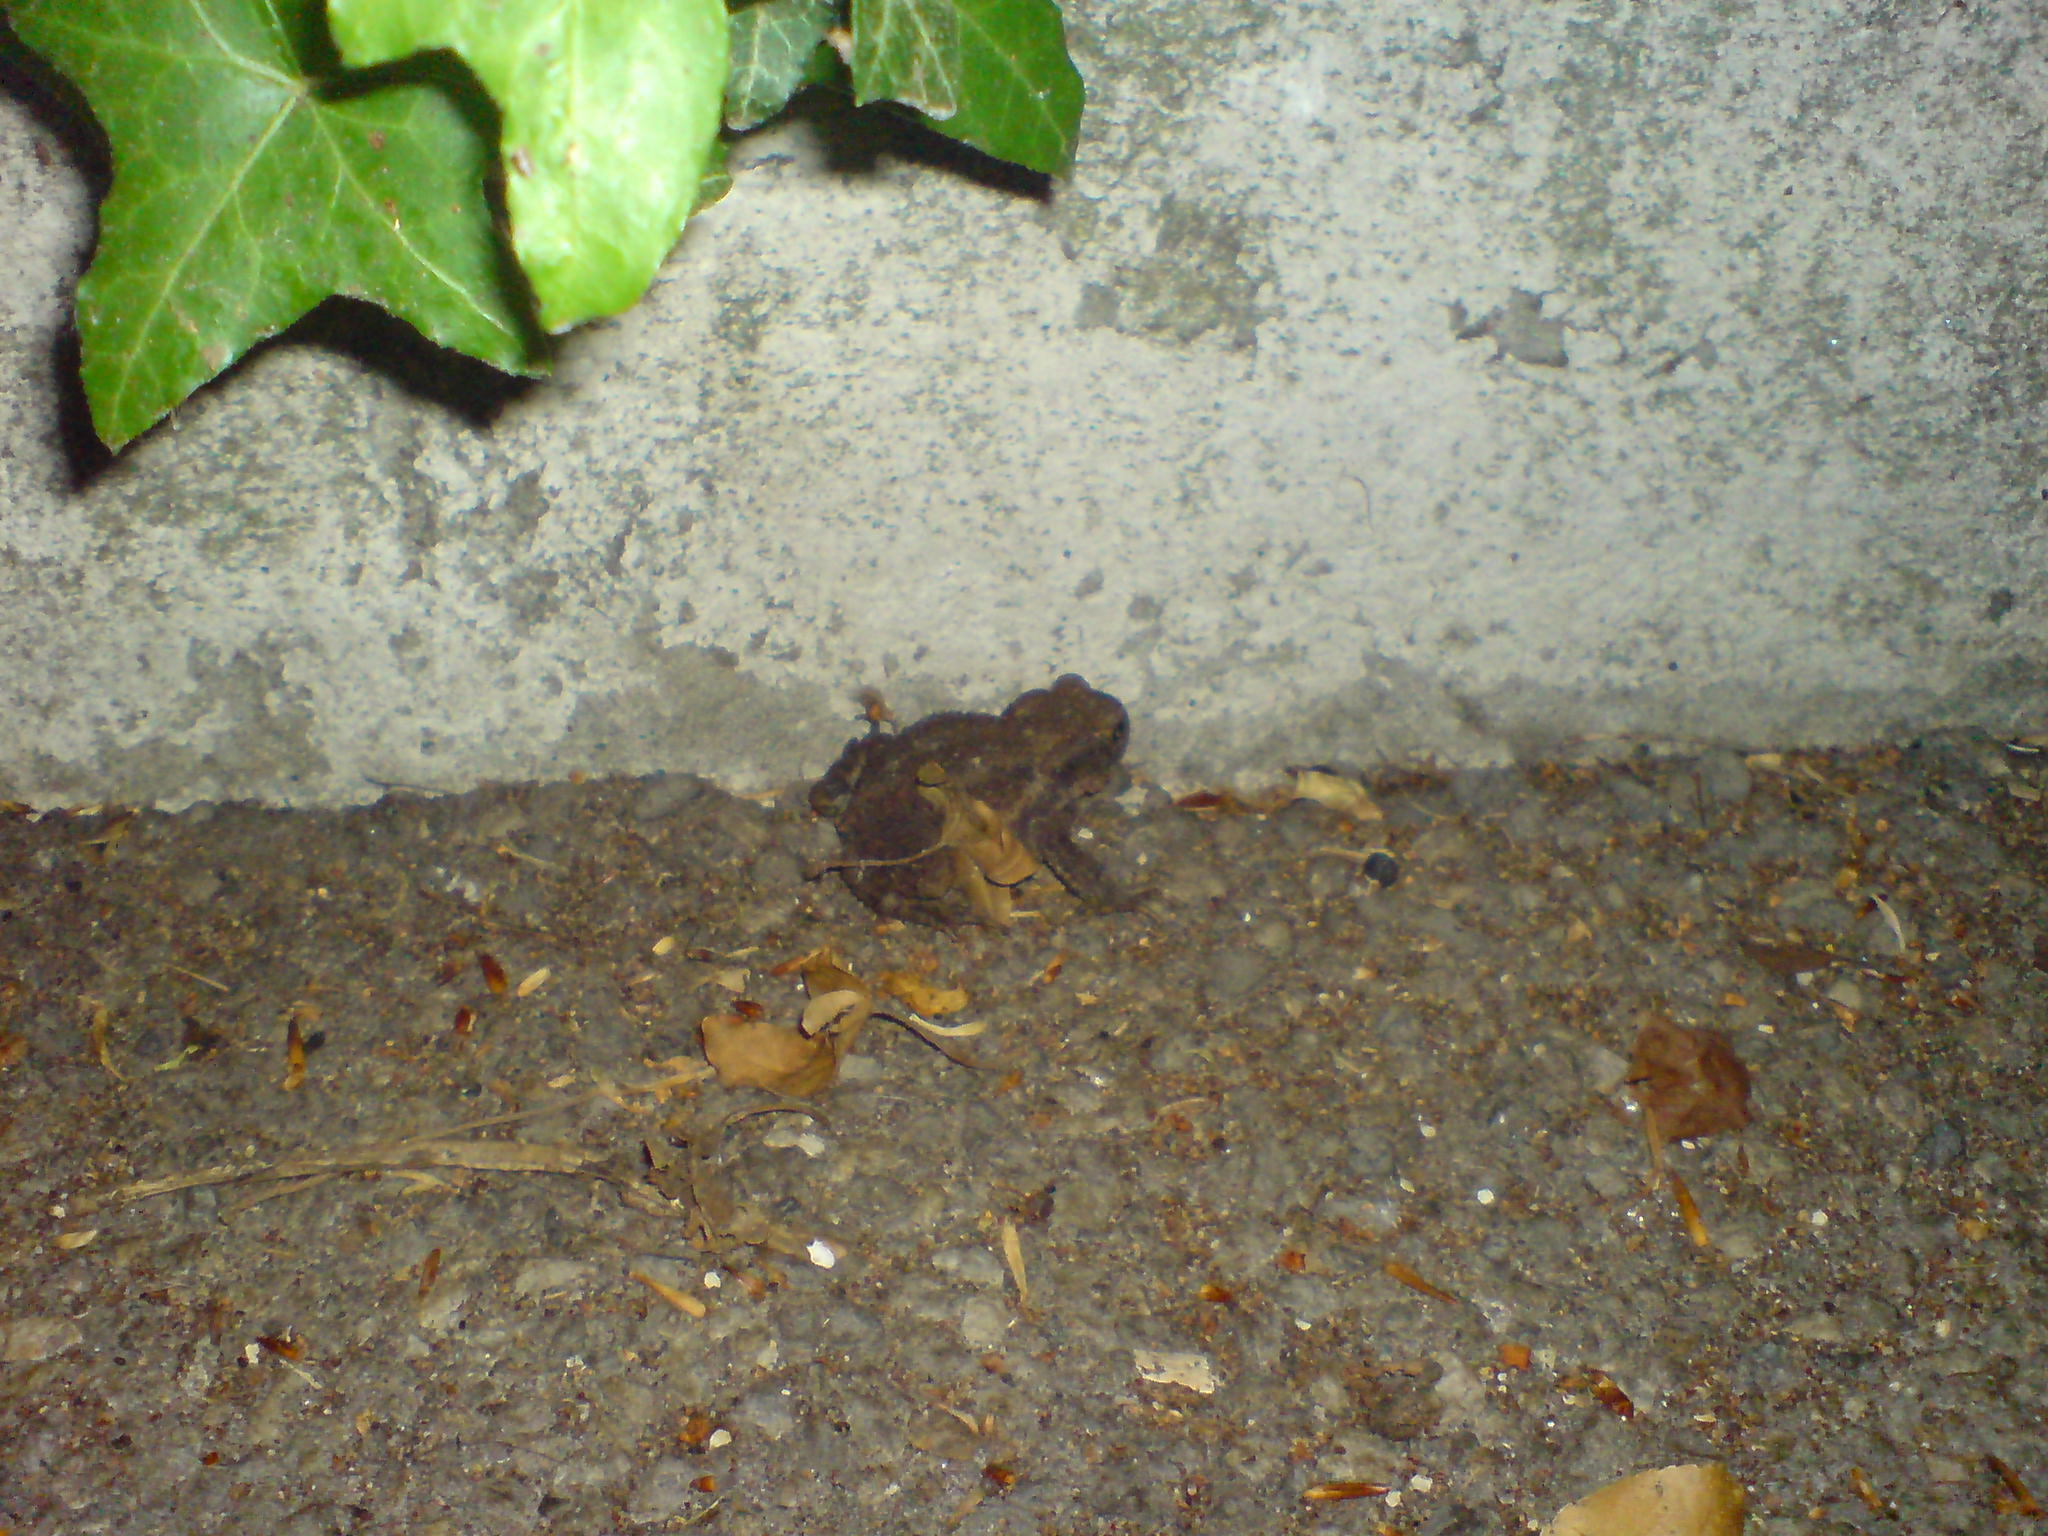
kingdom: Animalia
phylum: Chordata
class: Amphibia
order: Anura
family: Bufonidae
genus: Bufo
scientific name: Bufo bufo
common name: Common toad
